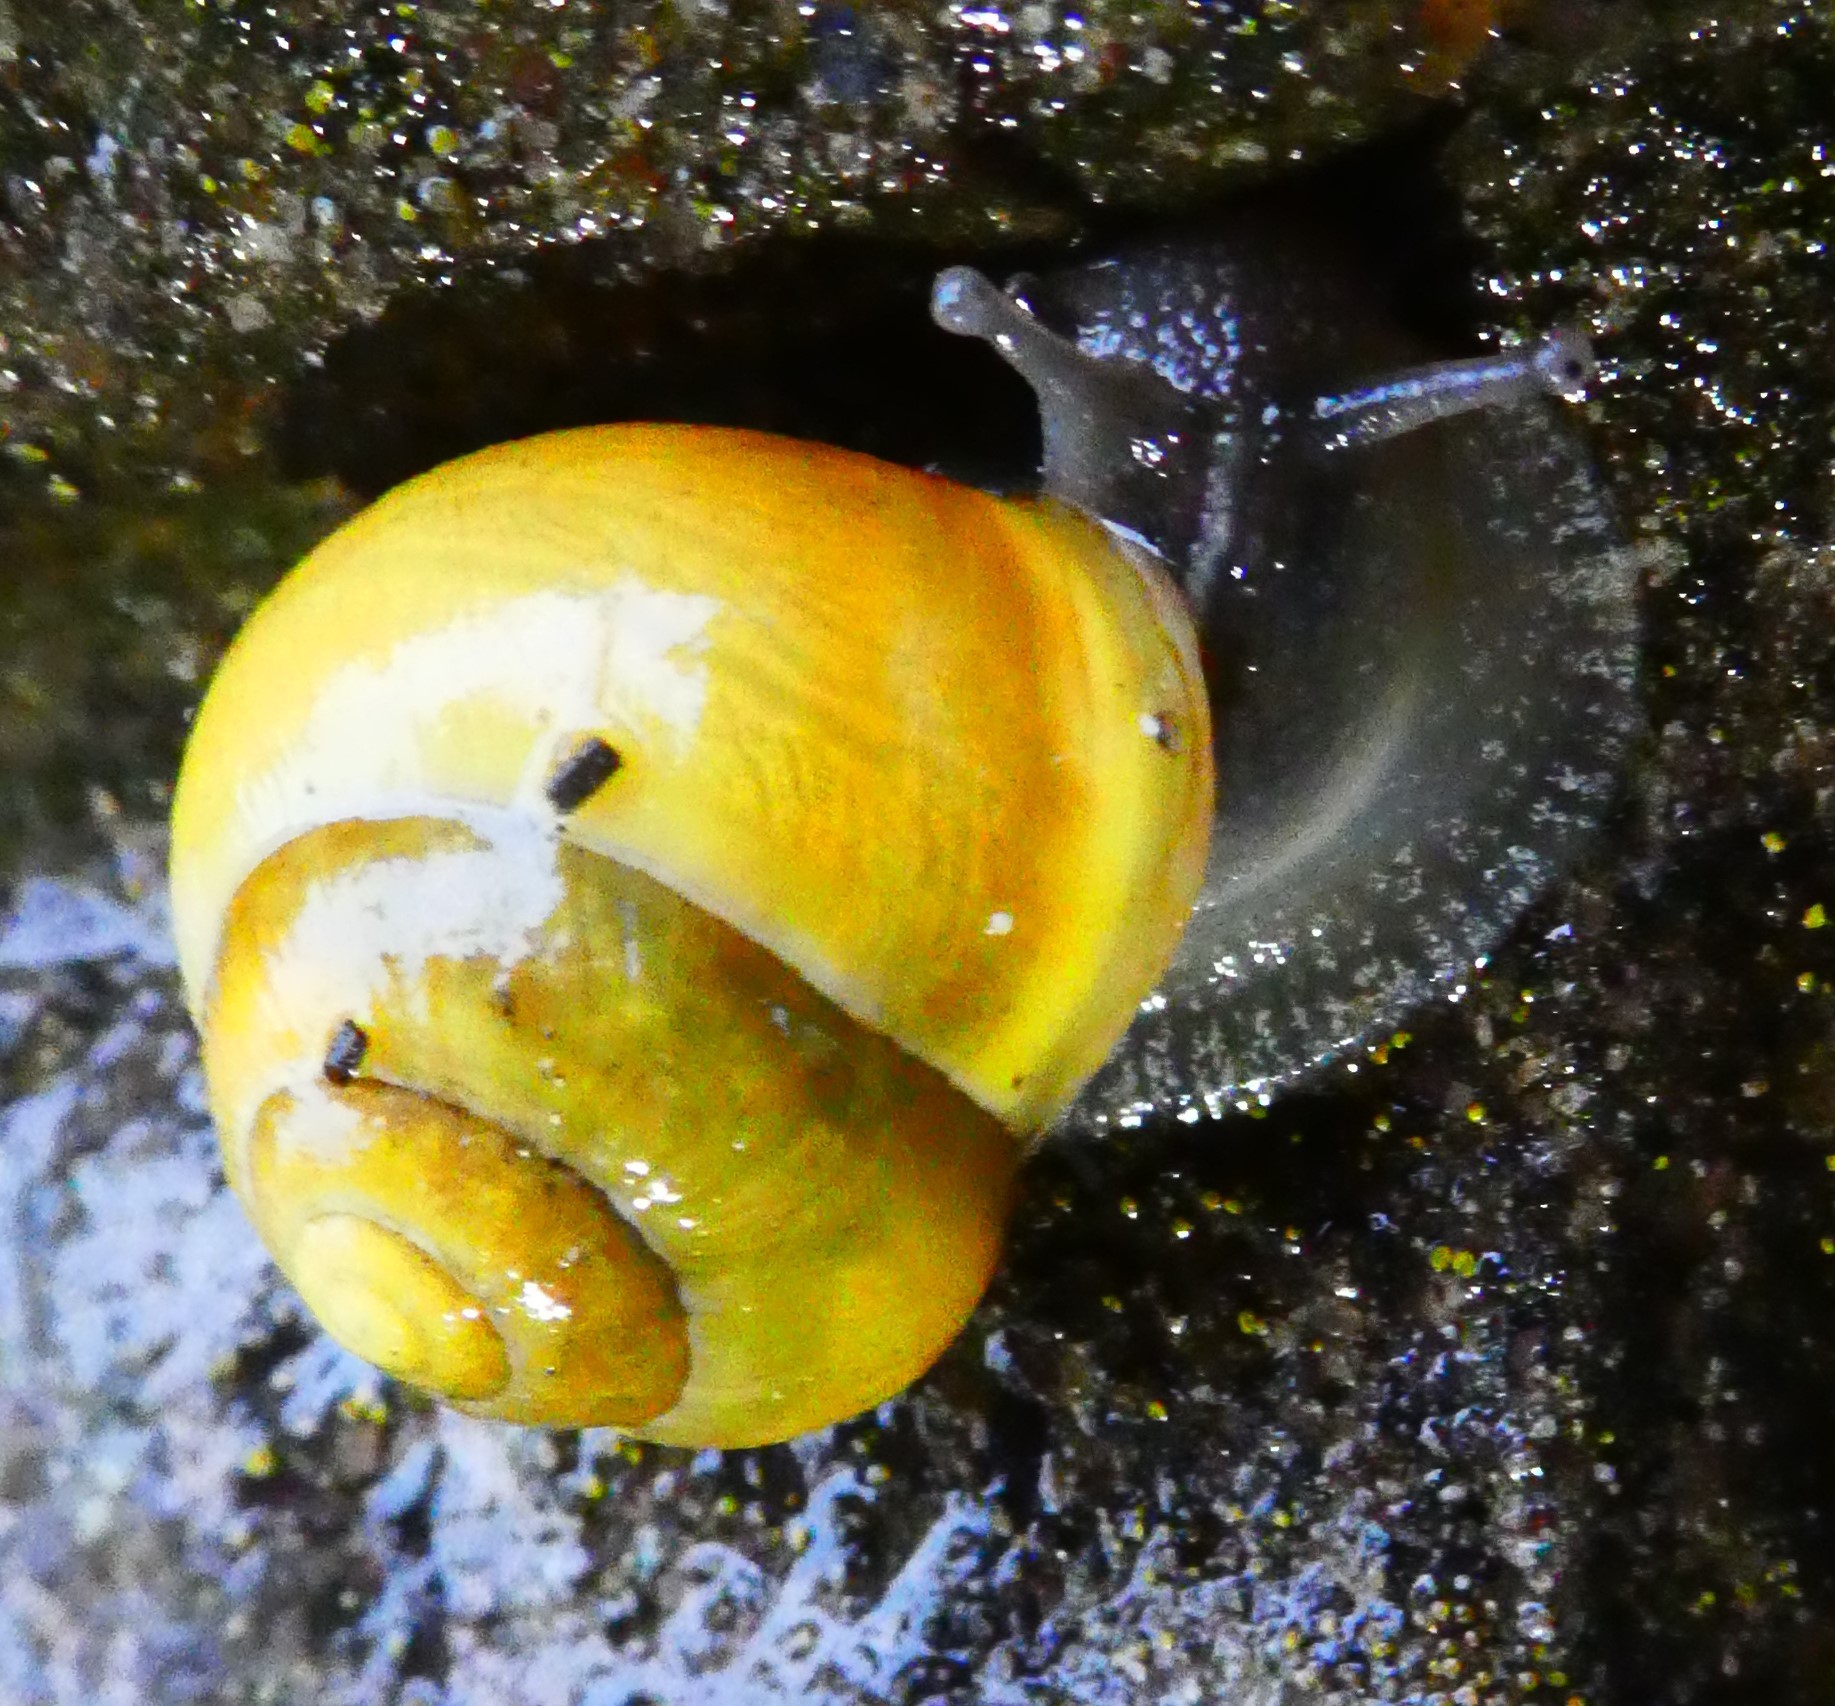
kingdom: Animalia
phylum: Mollusca
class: Gastropoda
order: Stylommatophora
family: Helicidae
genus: Cepaea
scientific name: Cepaea hortensis
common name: White-lip gardensnail
